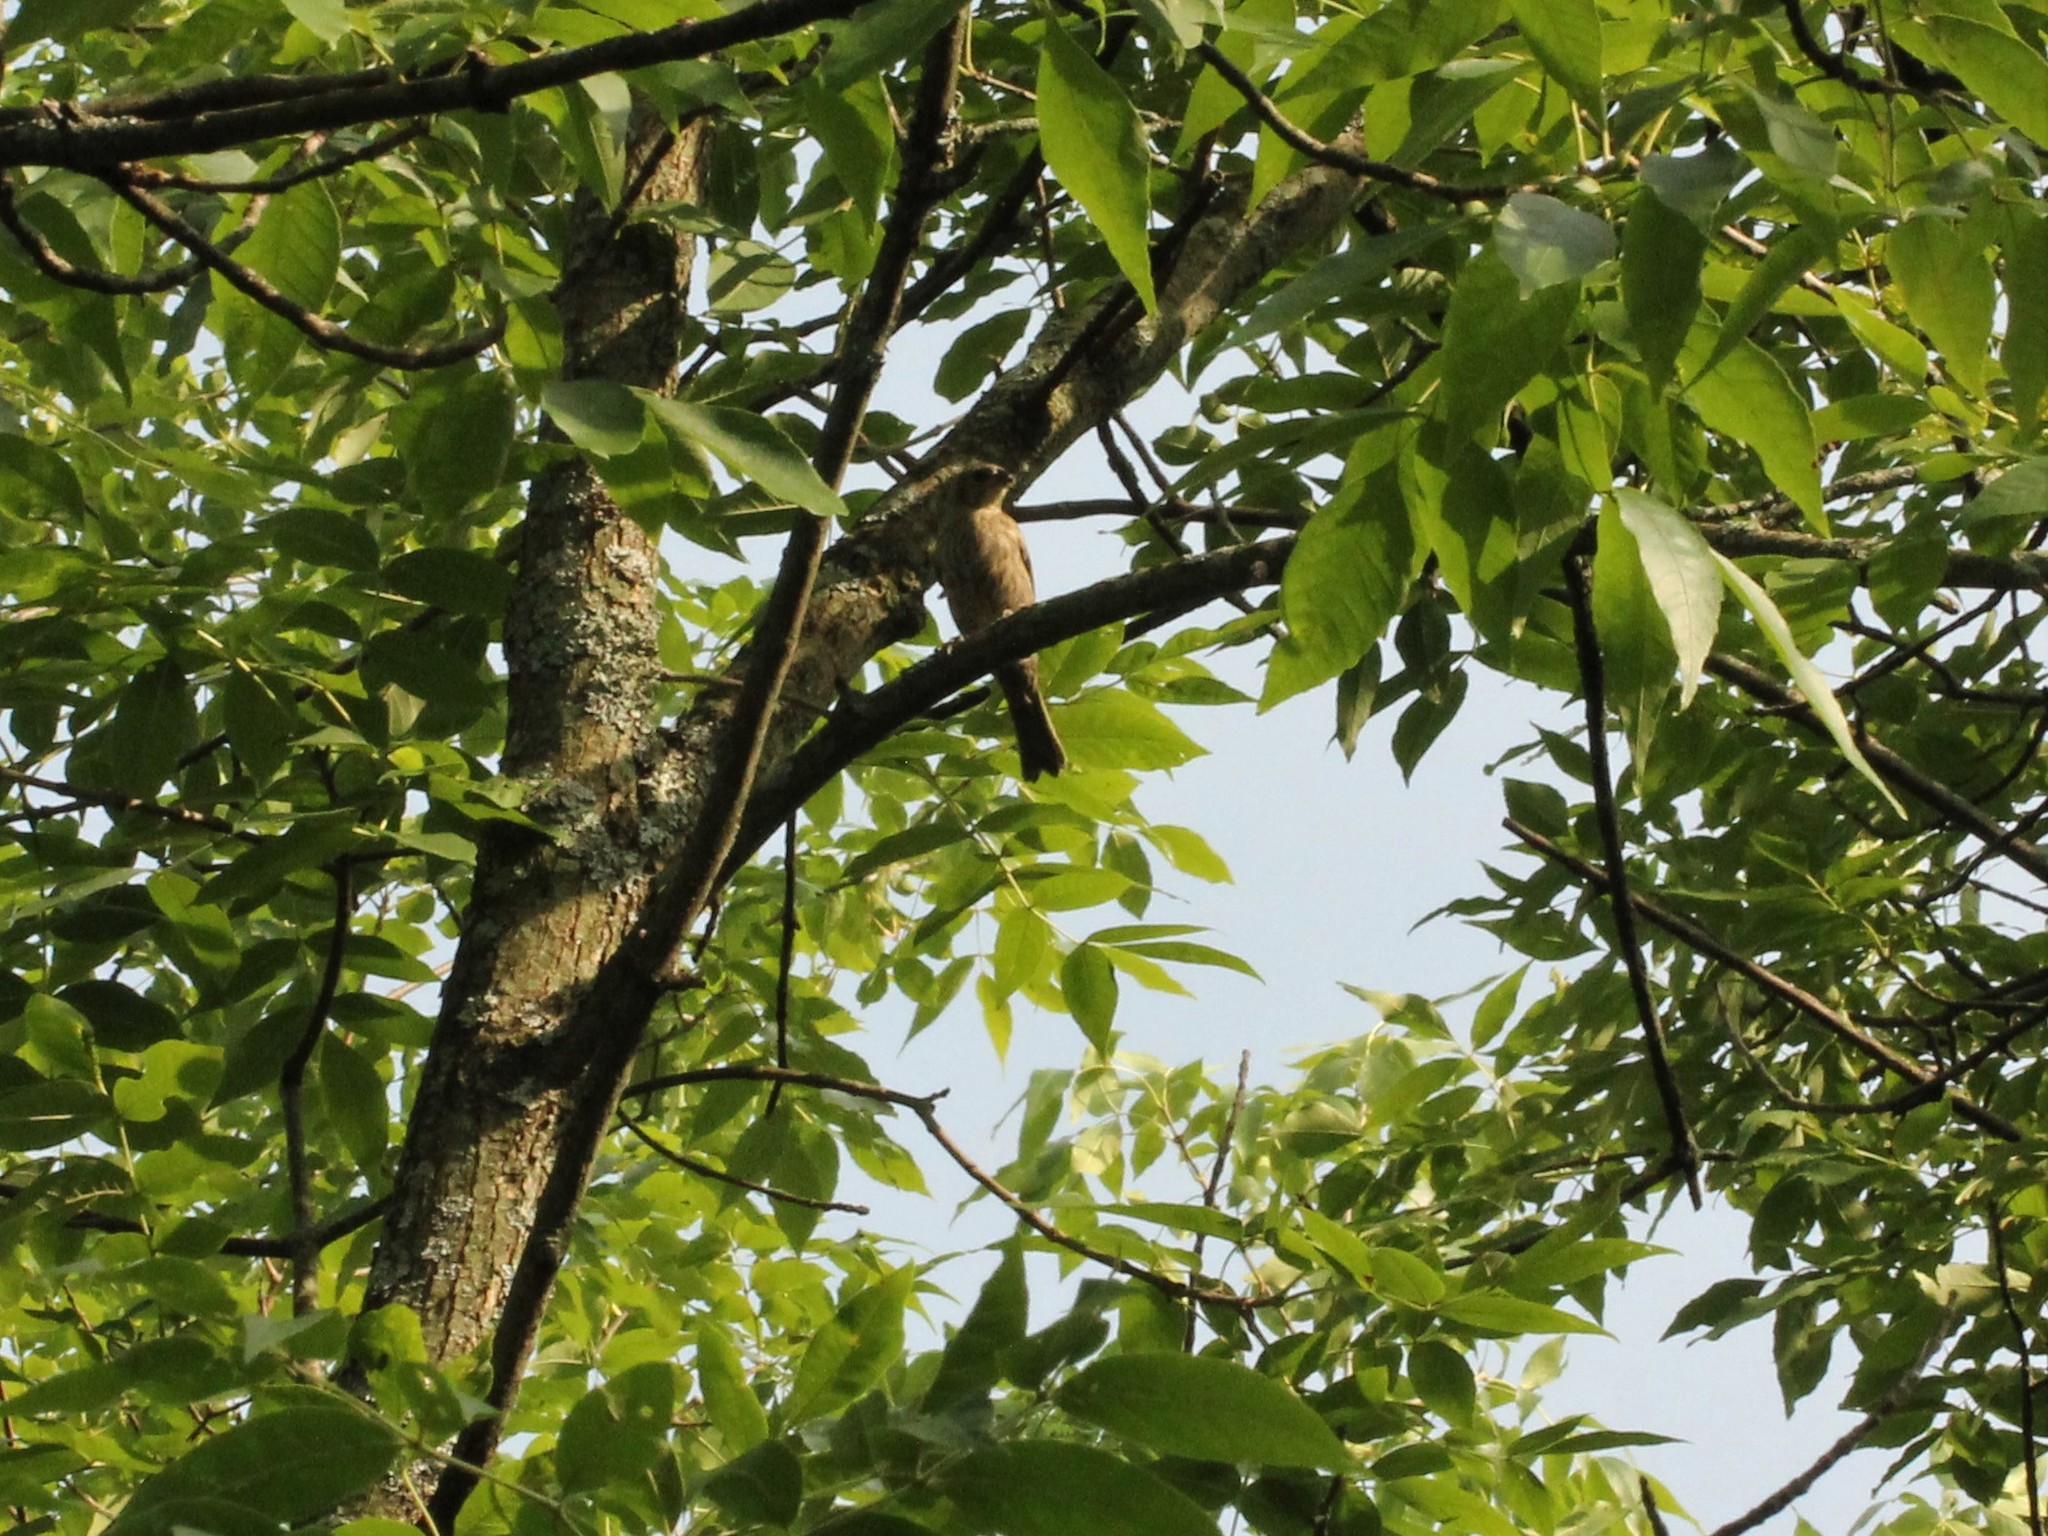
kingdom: Animalia
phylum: Chordata
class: Aves
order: Passeriformes
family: Fringillidae
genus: Haemorhous
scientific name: Haemorhous mexicanus
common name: House finch
